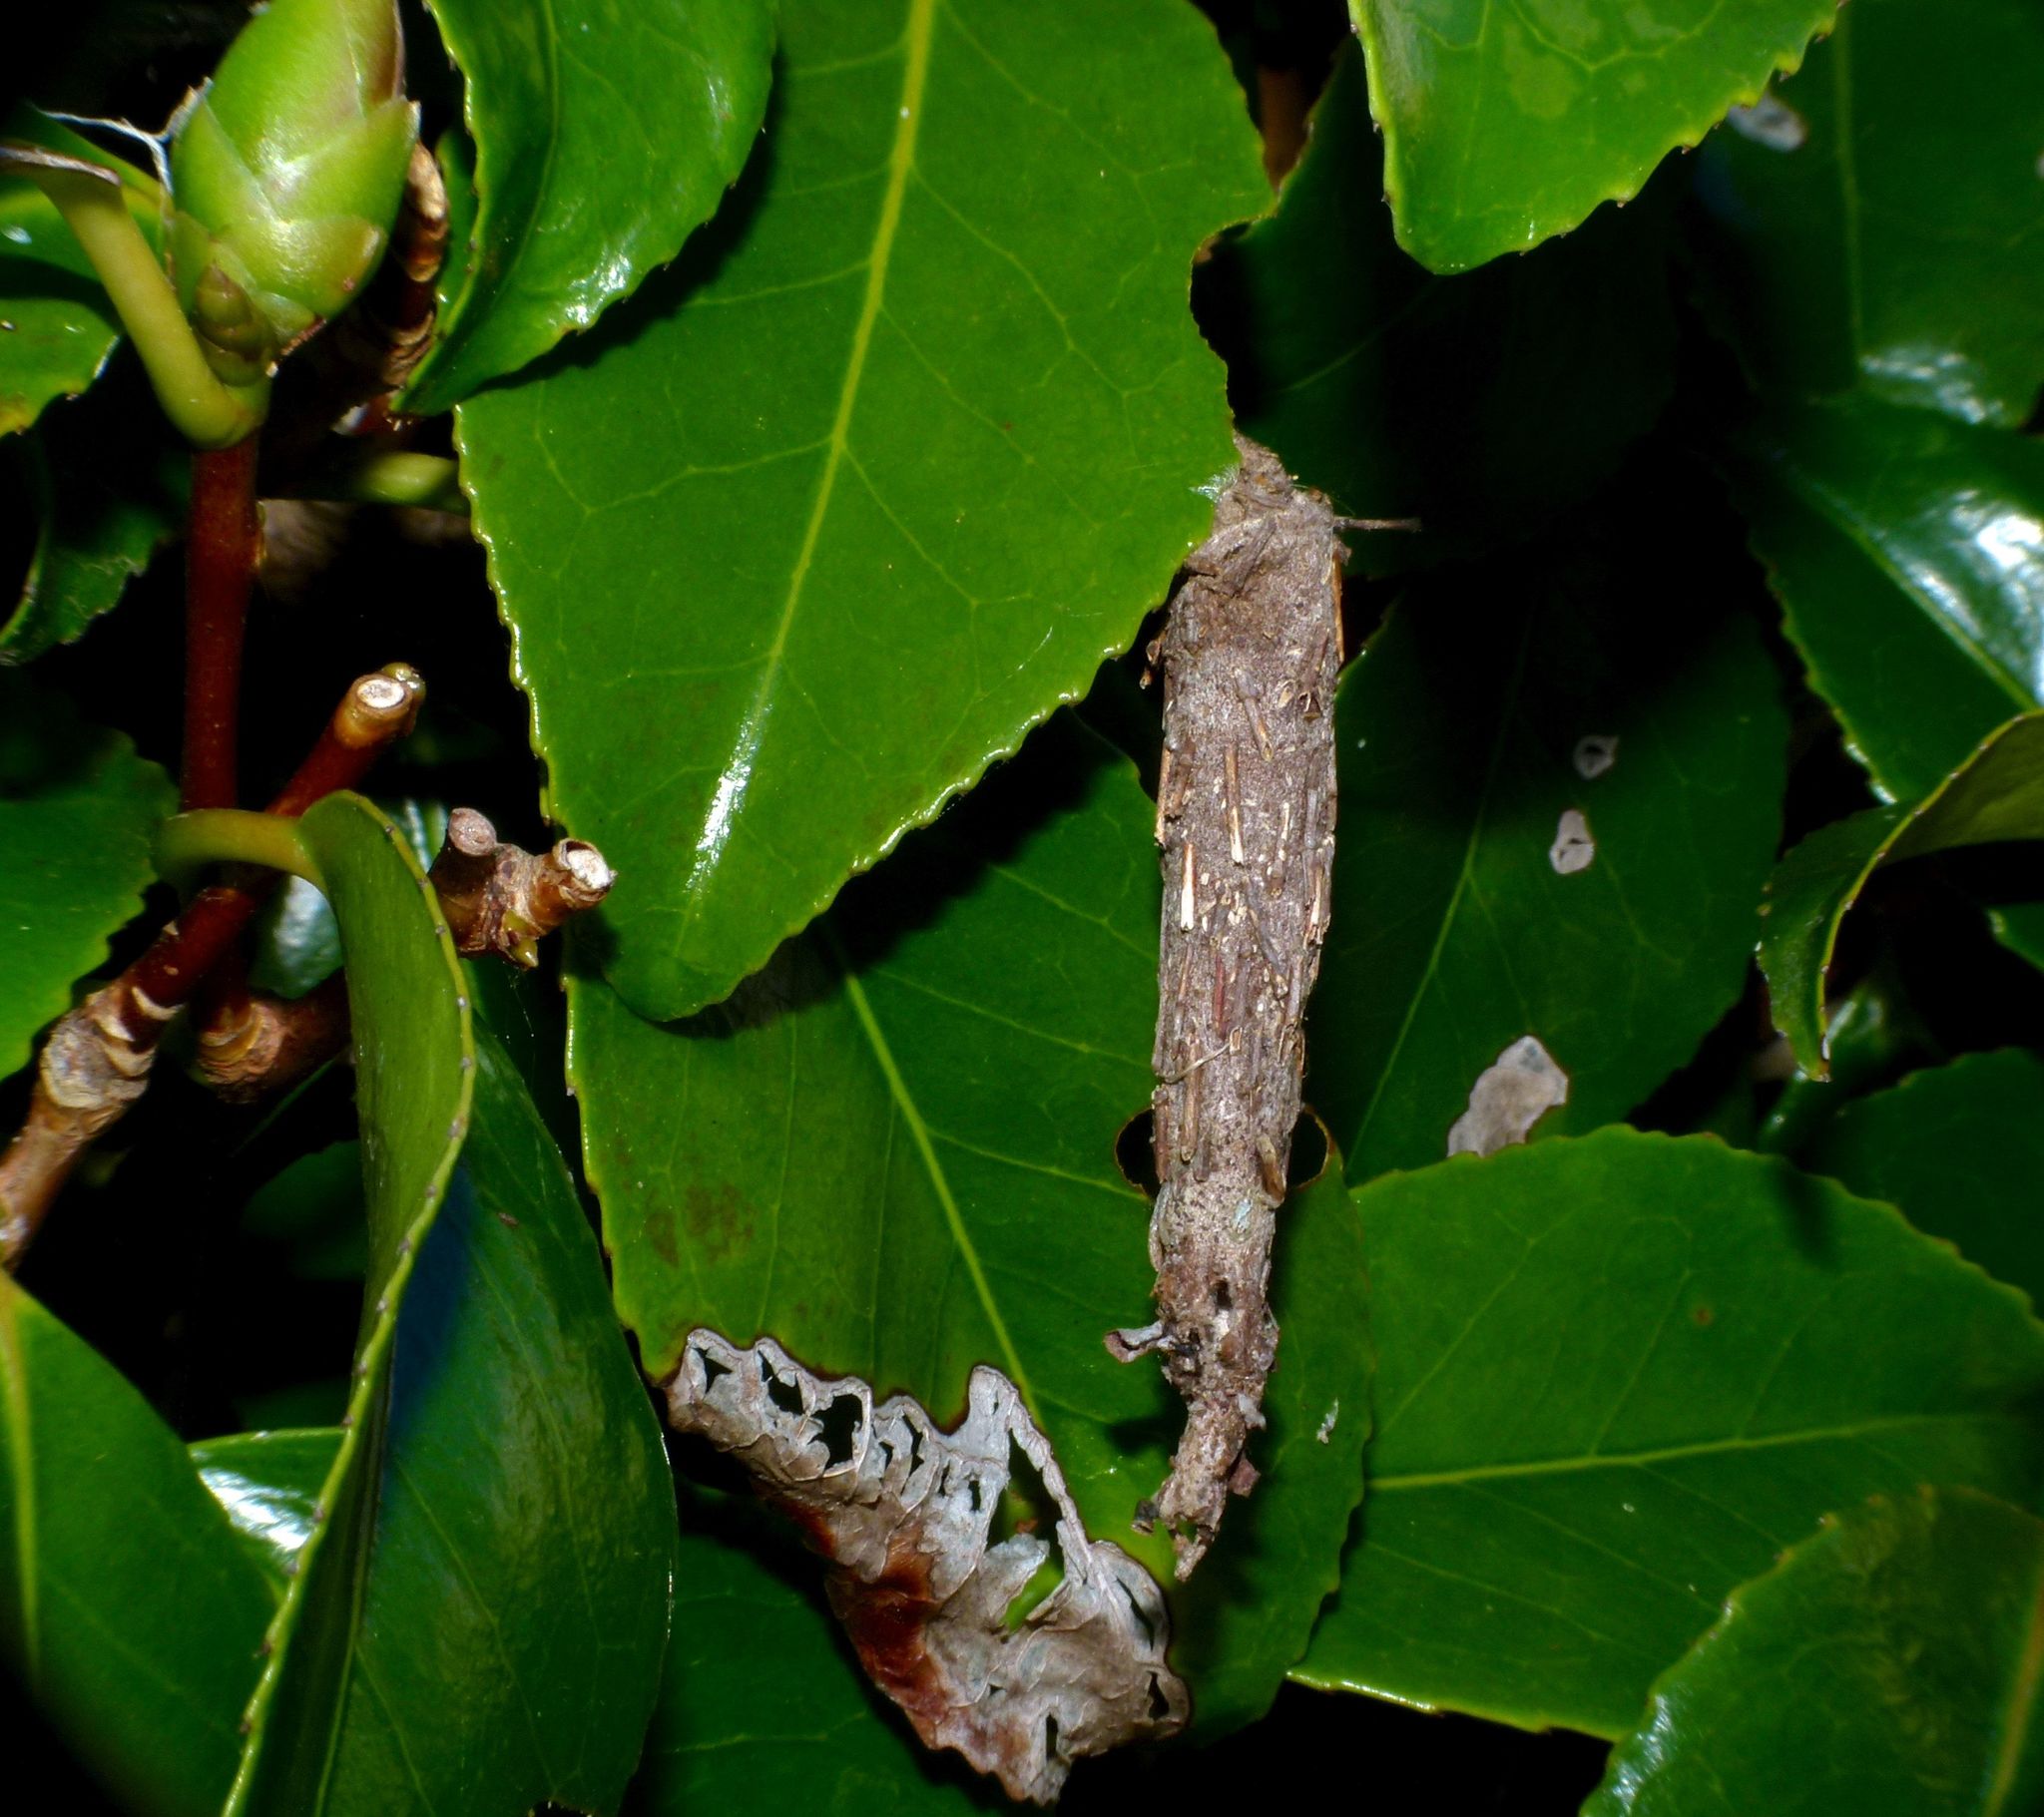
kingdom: Animalia
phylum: Arthropoda
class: Insecta
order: Lepidoptera
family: Psychidae
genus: Liothula
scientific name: Liothula omnivora
